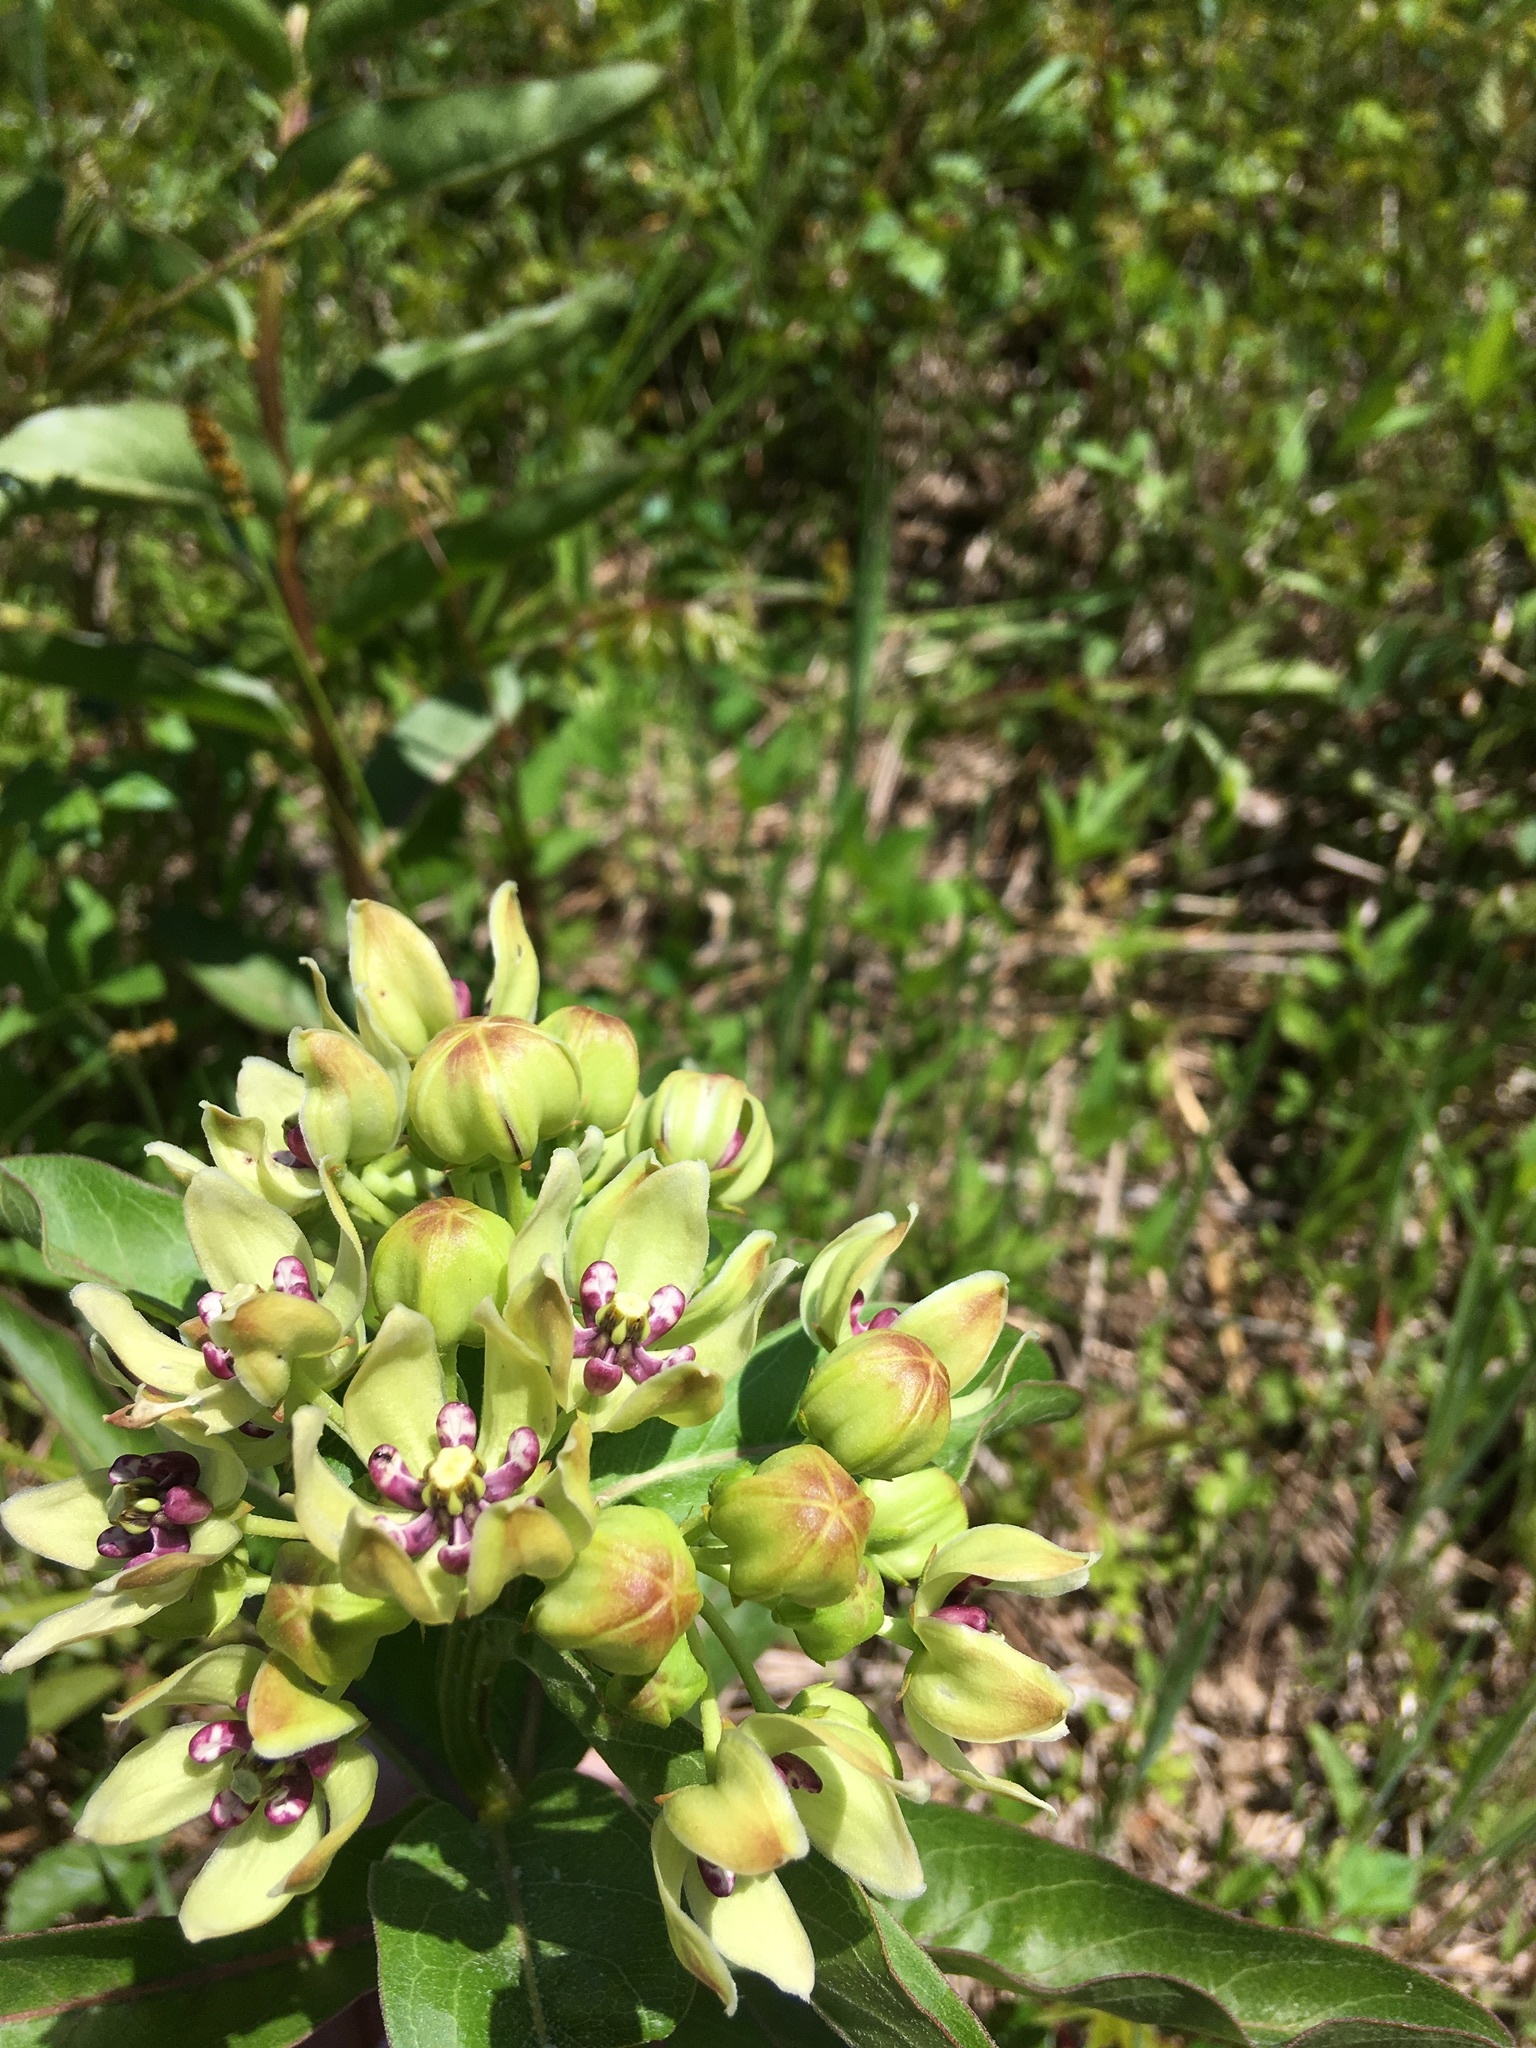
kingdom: Plantae
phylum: Tracheophyta
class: Magnoliopsida
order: Gentianales
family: Apocynaceae
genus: Asclepias
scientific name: Asclepias viridis
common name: Antelope-horns
